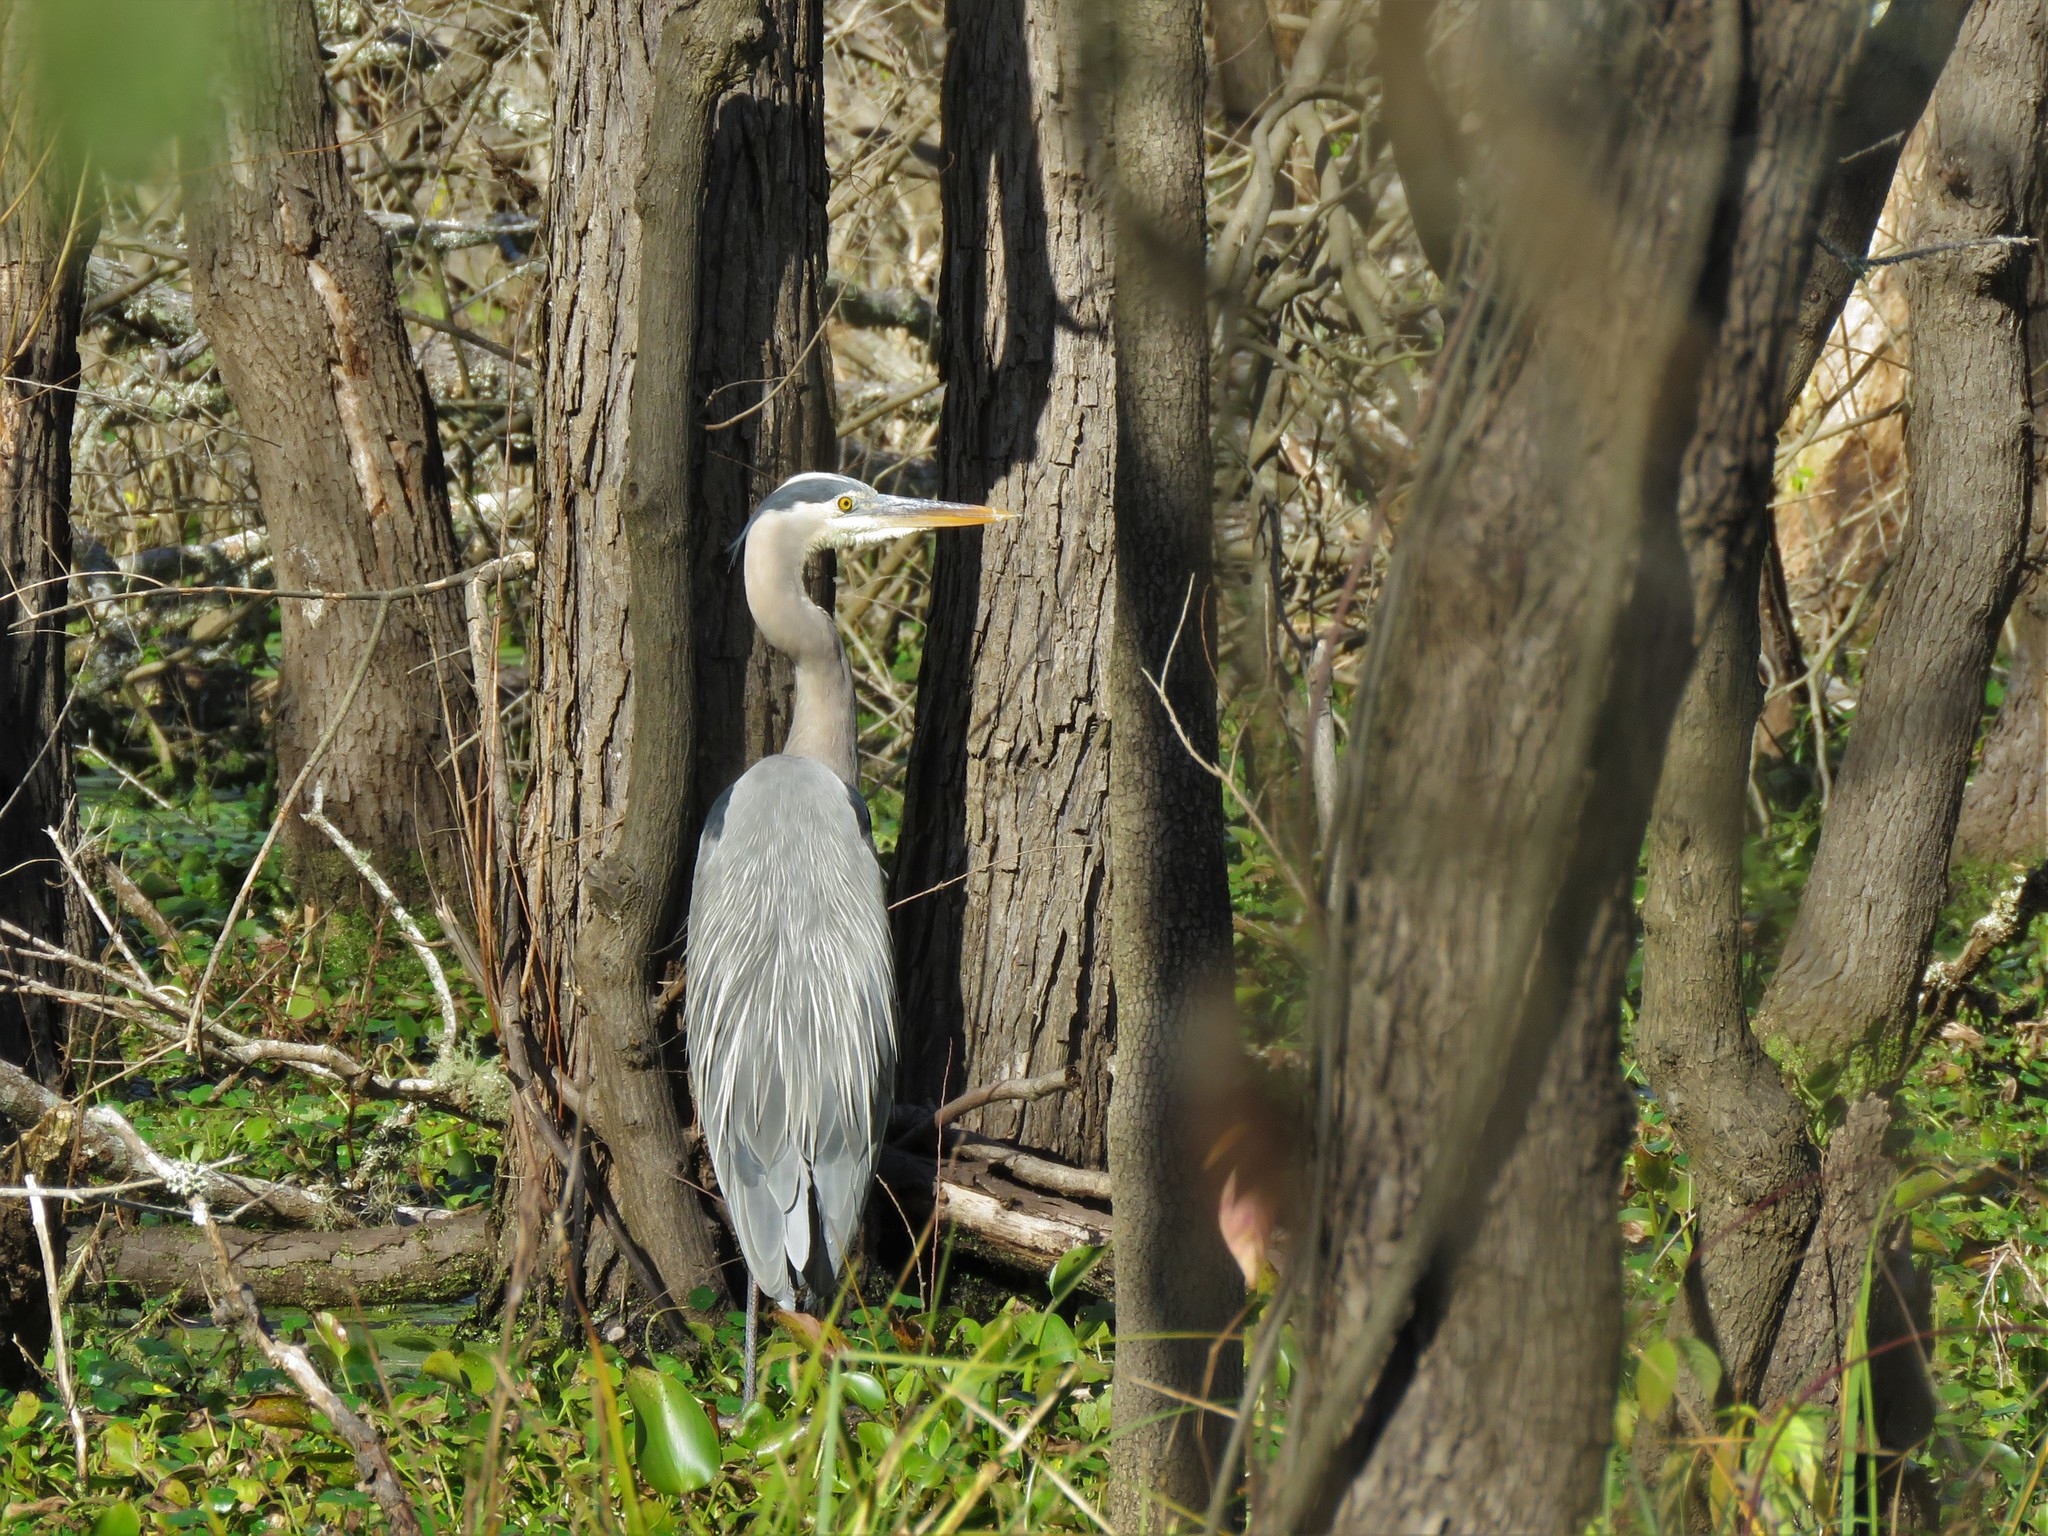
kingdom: Animalia
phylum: Chordata
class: Aves
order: Pelecaniformes
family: Ardeidae
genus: Ardea
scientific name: Ardea herodias
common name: Great blue heron
